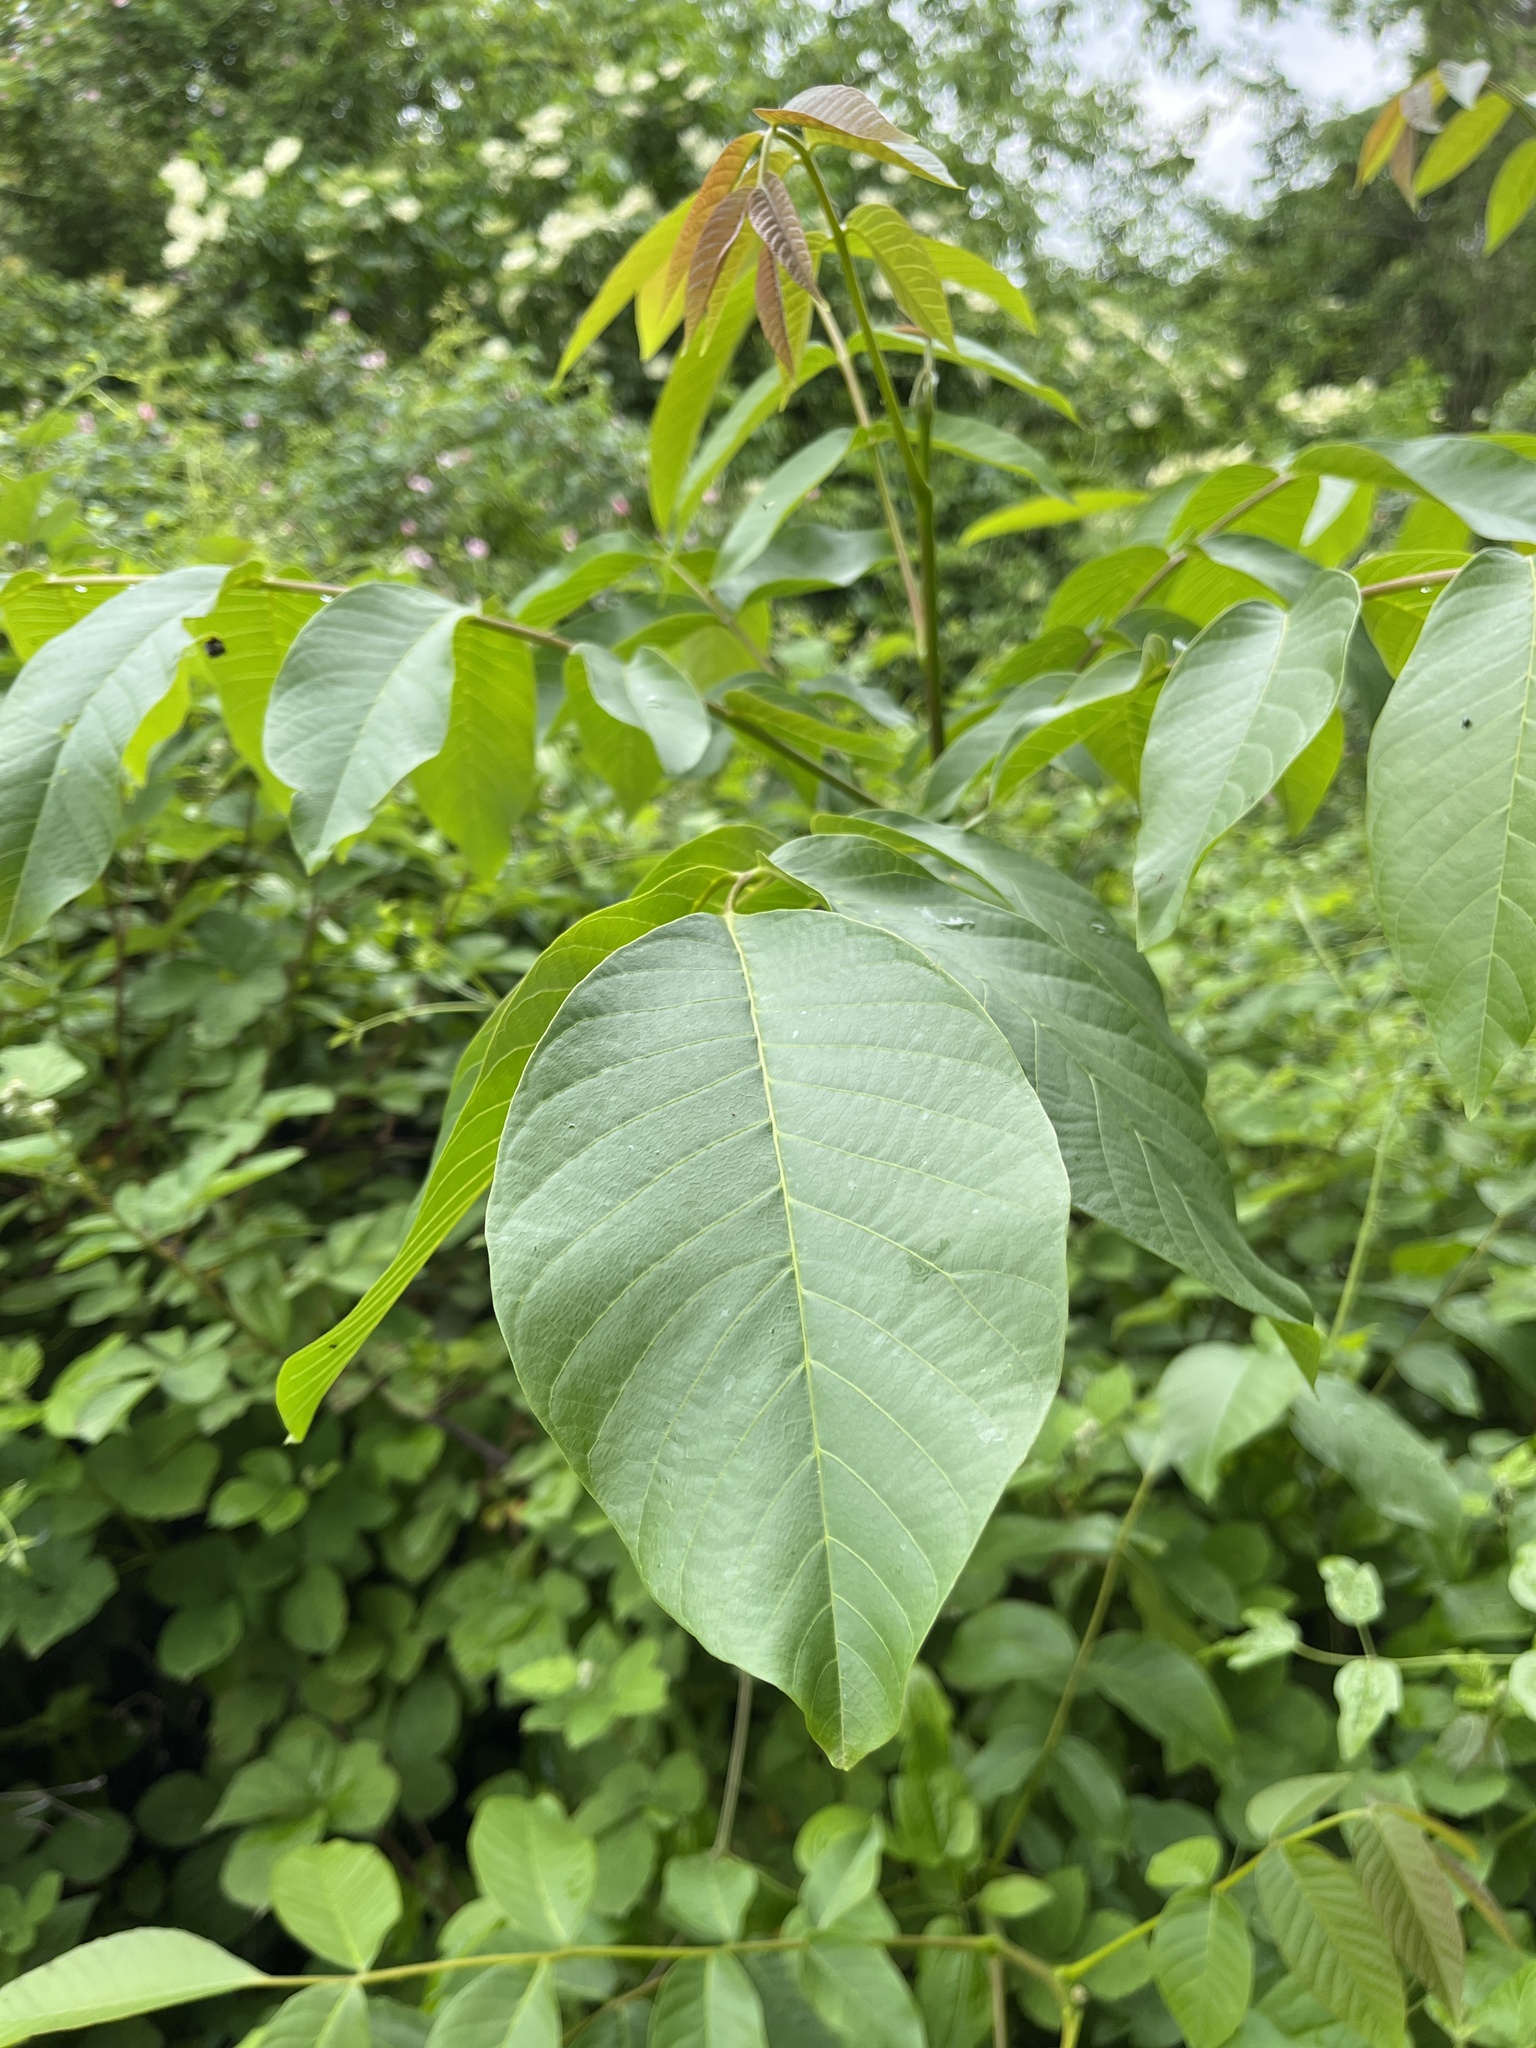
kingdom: Plantae
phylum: Tracheophyta
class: Magnoliopsida
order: Fagales
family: Juglandaceae
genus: Juglans
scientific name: Juglans regia
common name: Walnut
